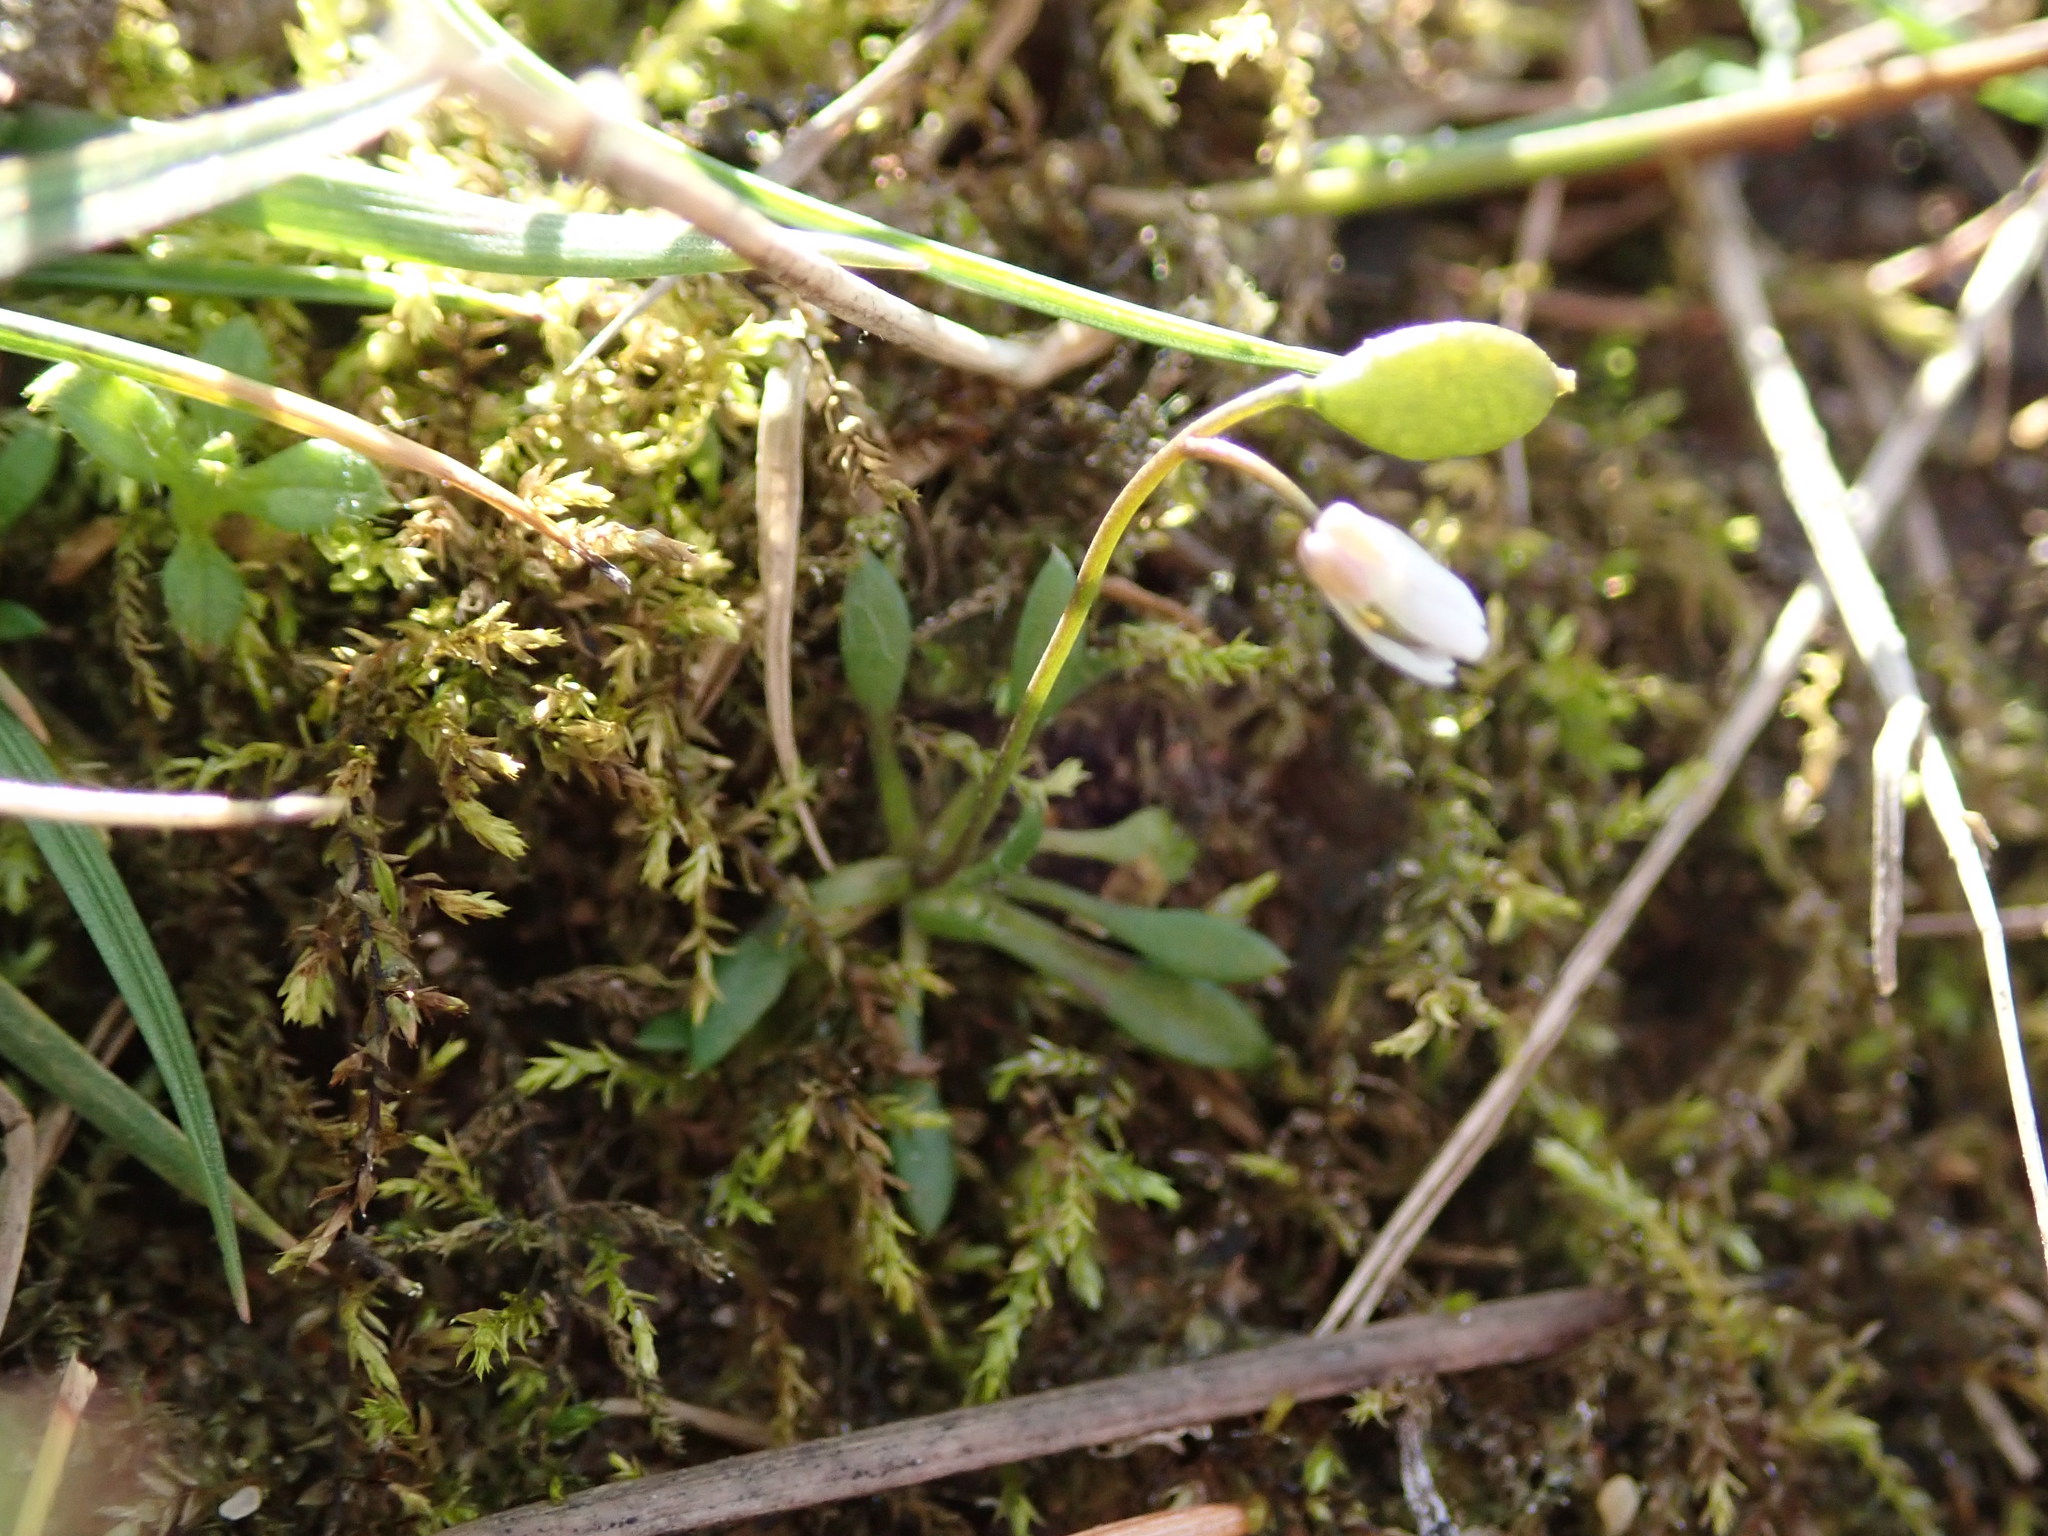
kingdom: Plantae
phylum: Tracheophyta
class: Magnoliopsida
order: Brassicales
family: Brassicaceae
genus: Draba
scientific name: Draba verna
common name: Spring draba
